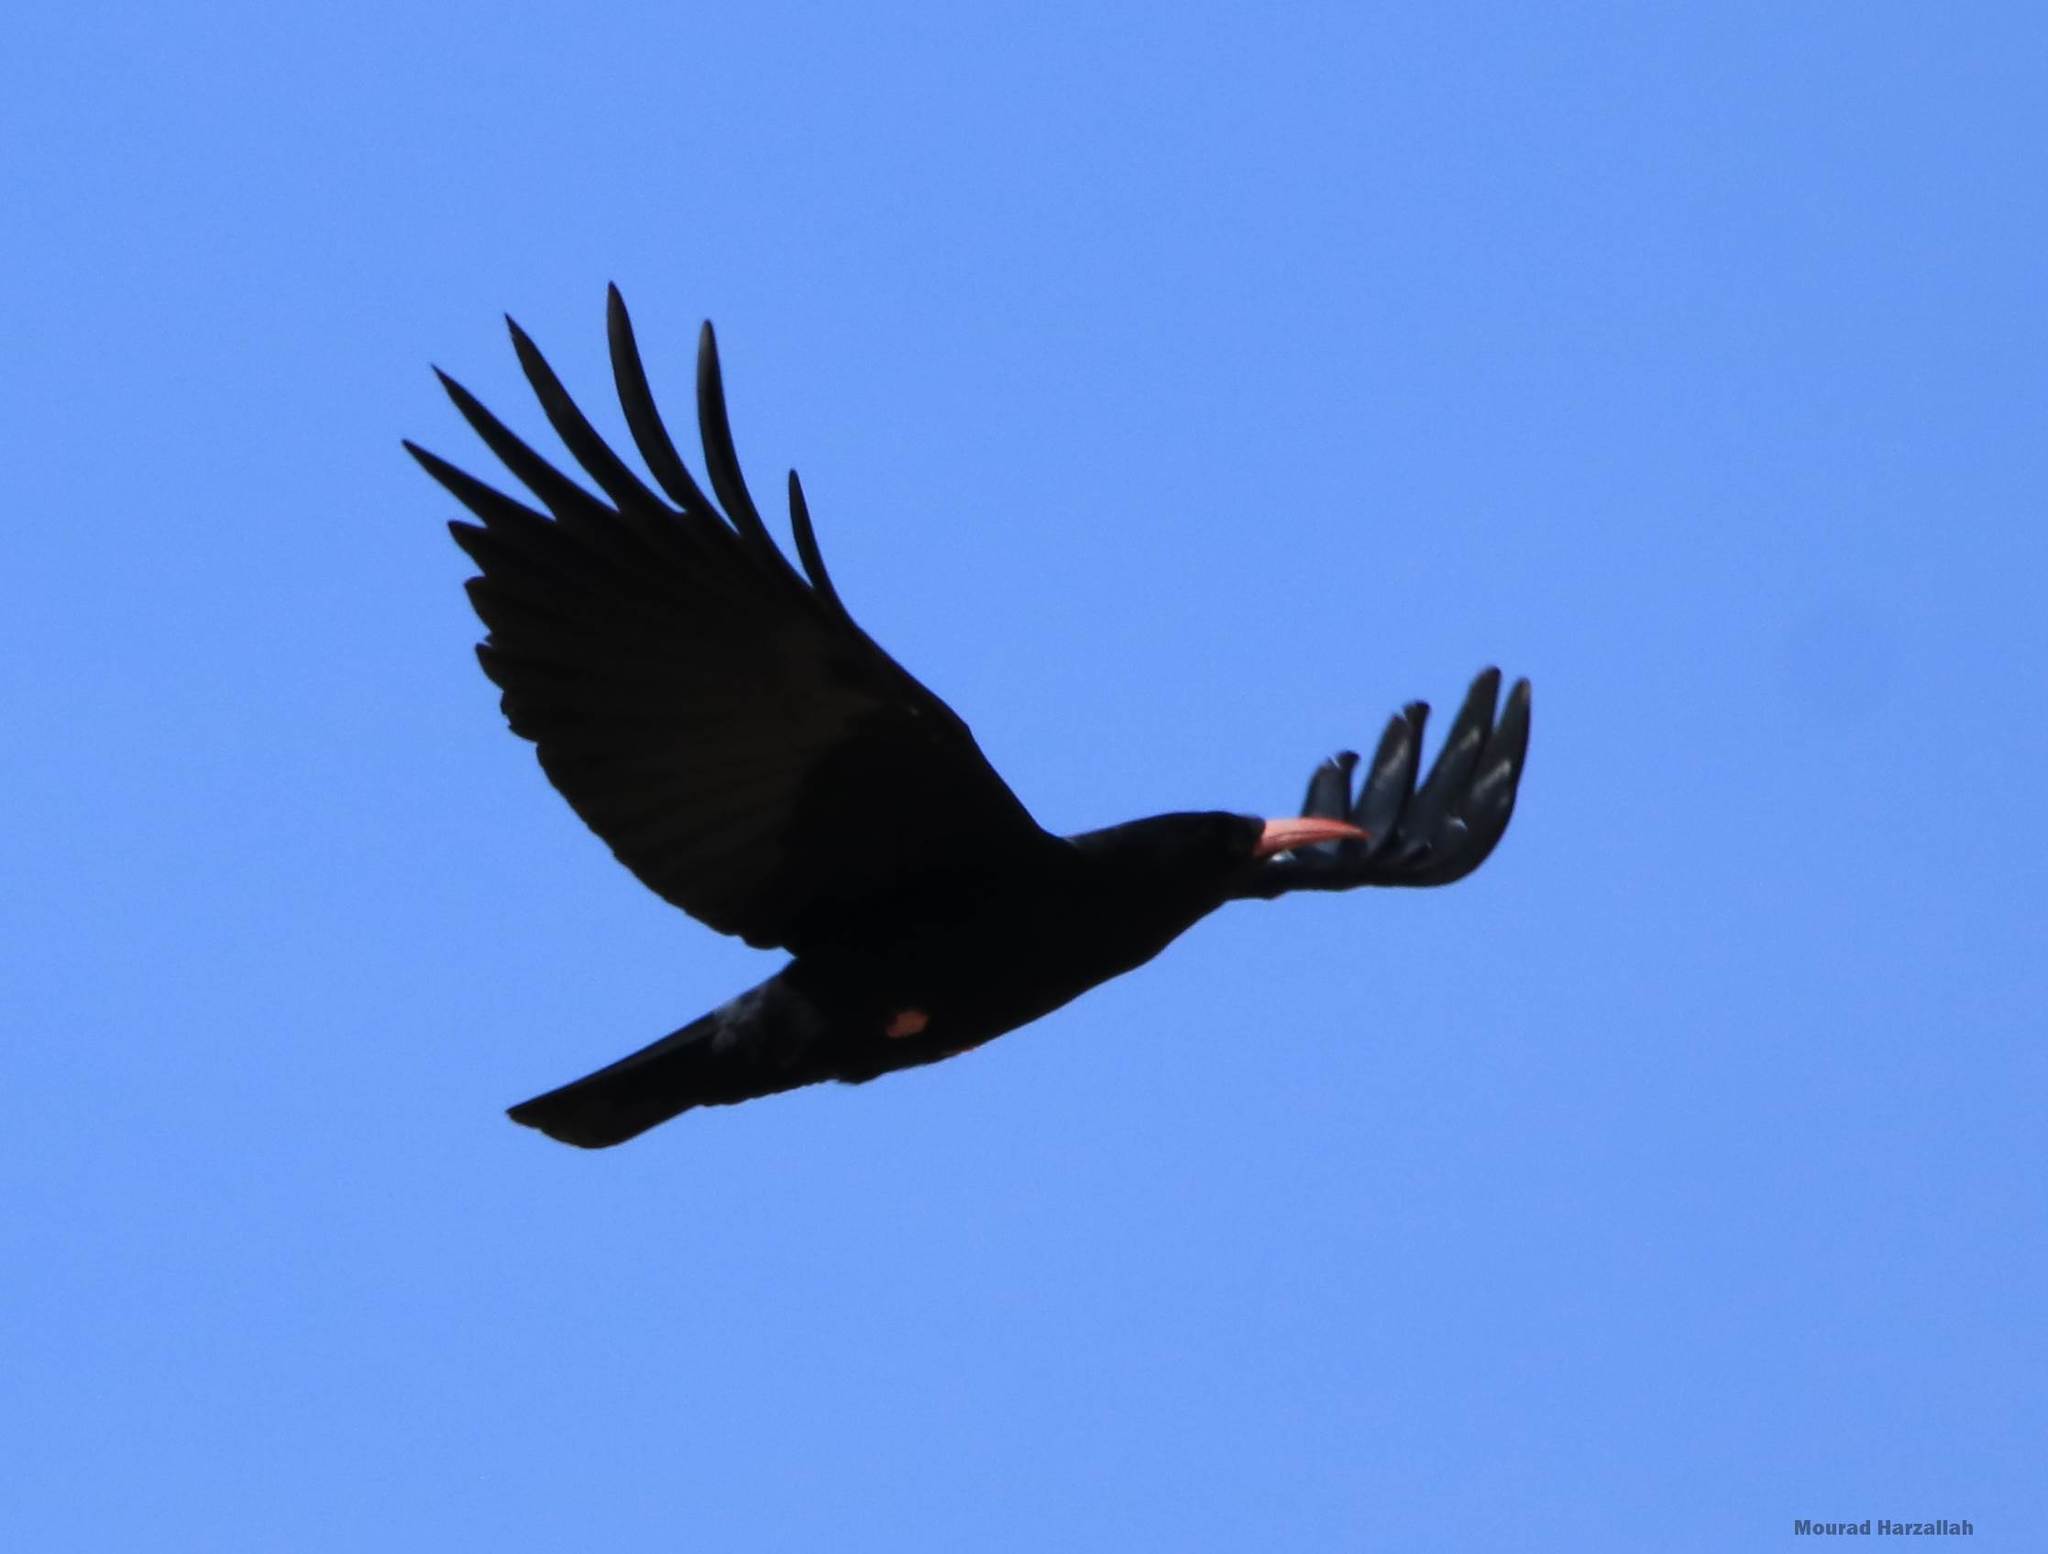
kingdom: Animalia
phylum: Chordata
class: Aves
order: Passeriformes
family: Corvidae
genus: Pyrrhocorax
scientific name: Pyrrhocorax pyrrhocorax
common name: Red-billed chough
